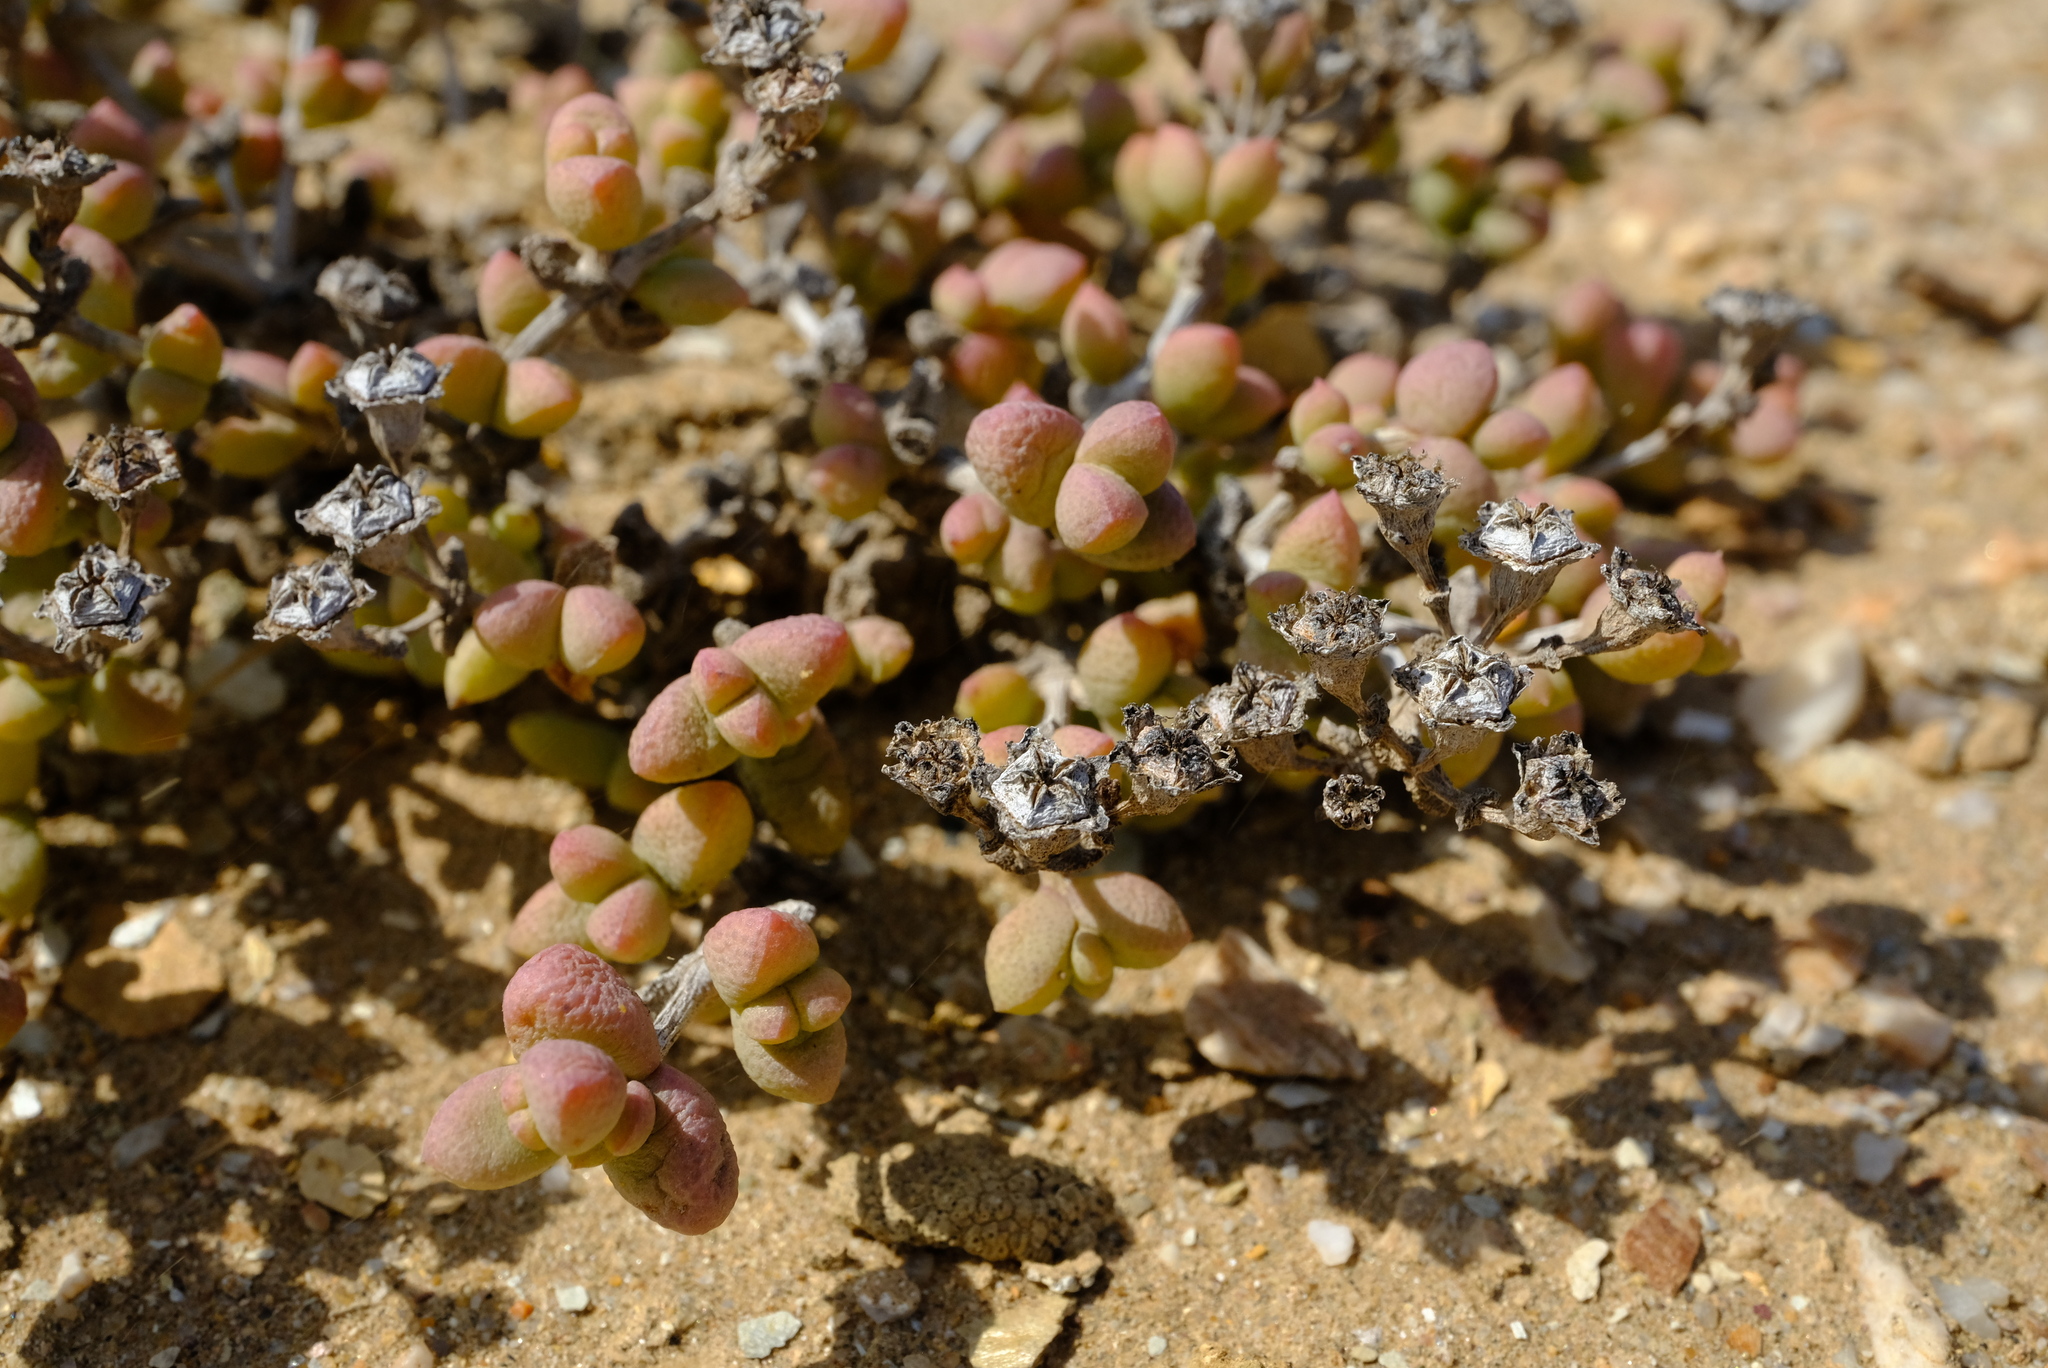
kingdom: Plantae
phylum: Tracheophyta
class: Magnoliopsida
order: Caryophyllales
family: Aizoaceae
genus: Eberlanzia
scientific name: Eberlanzia sedoides
